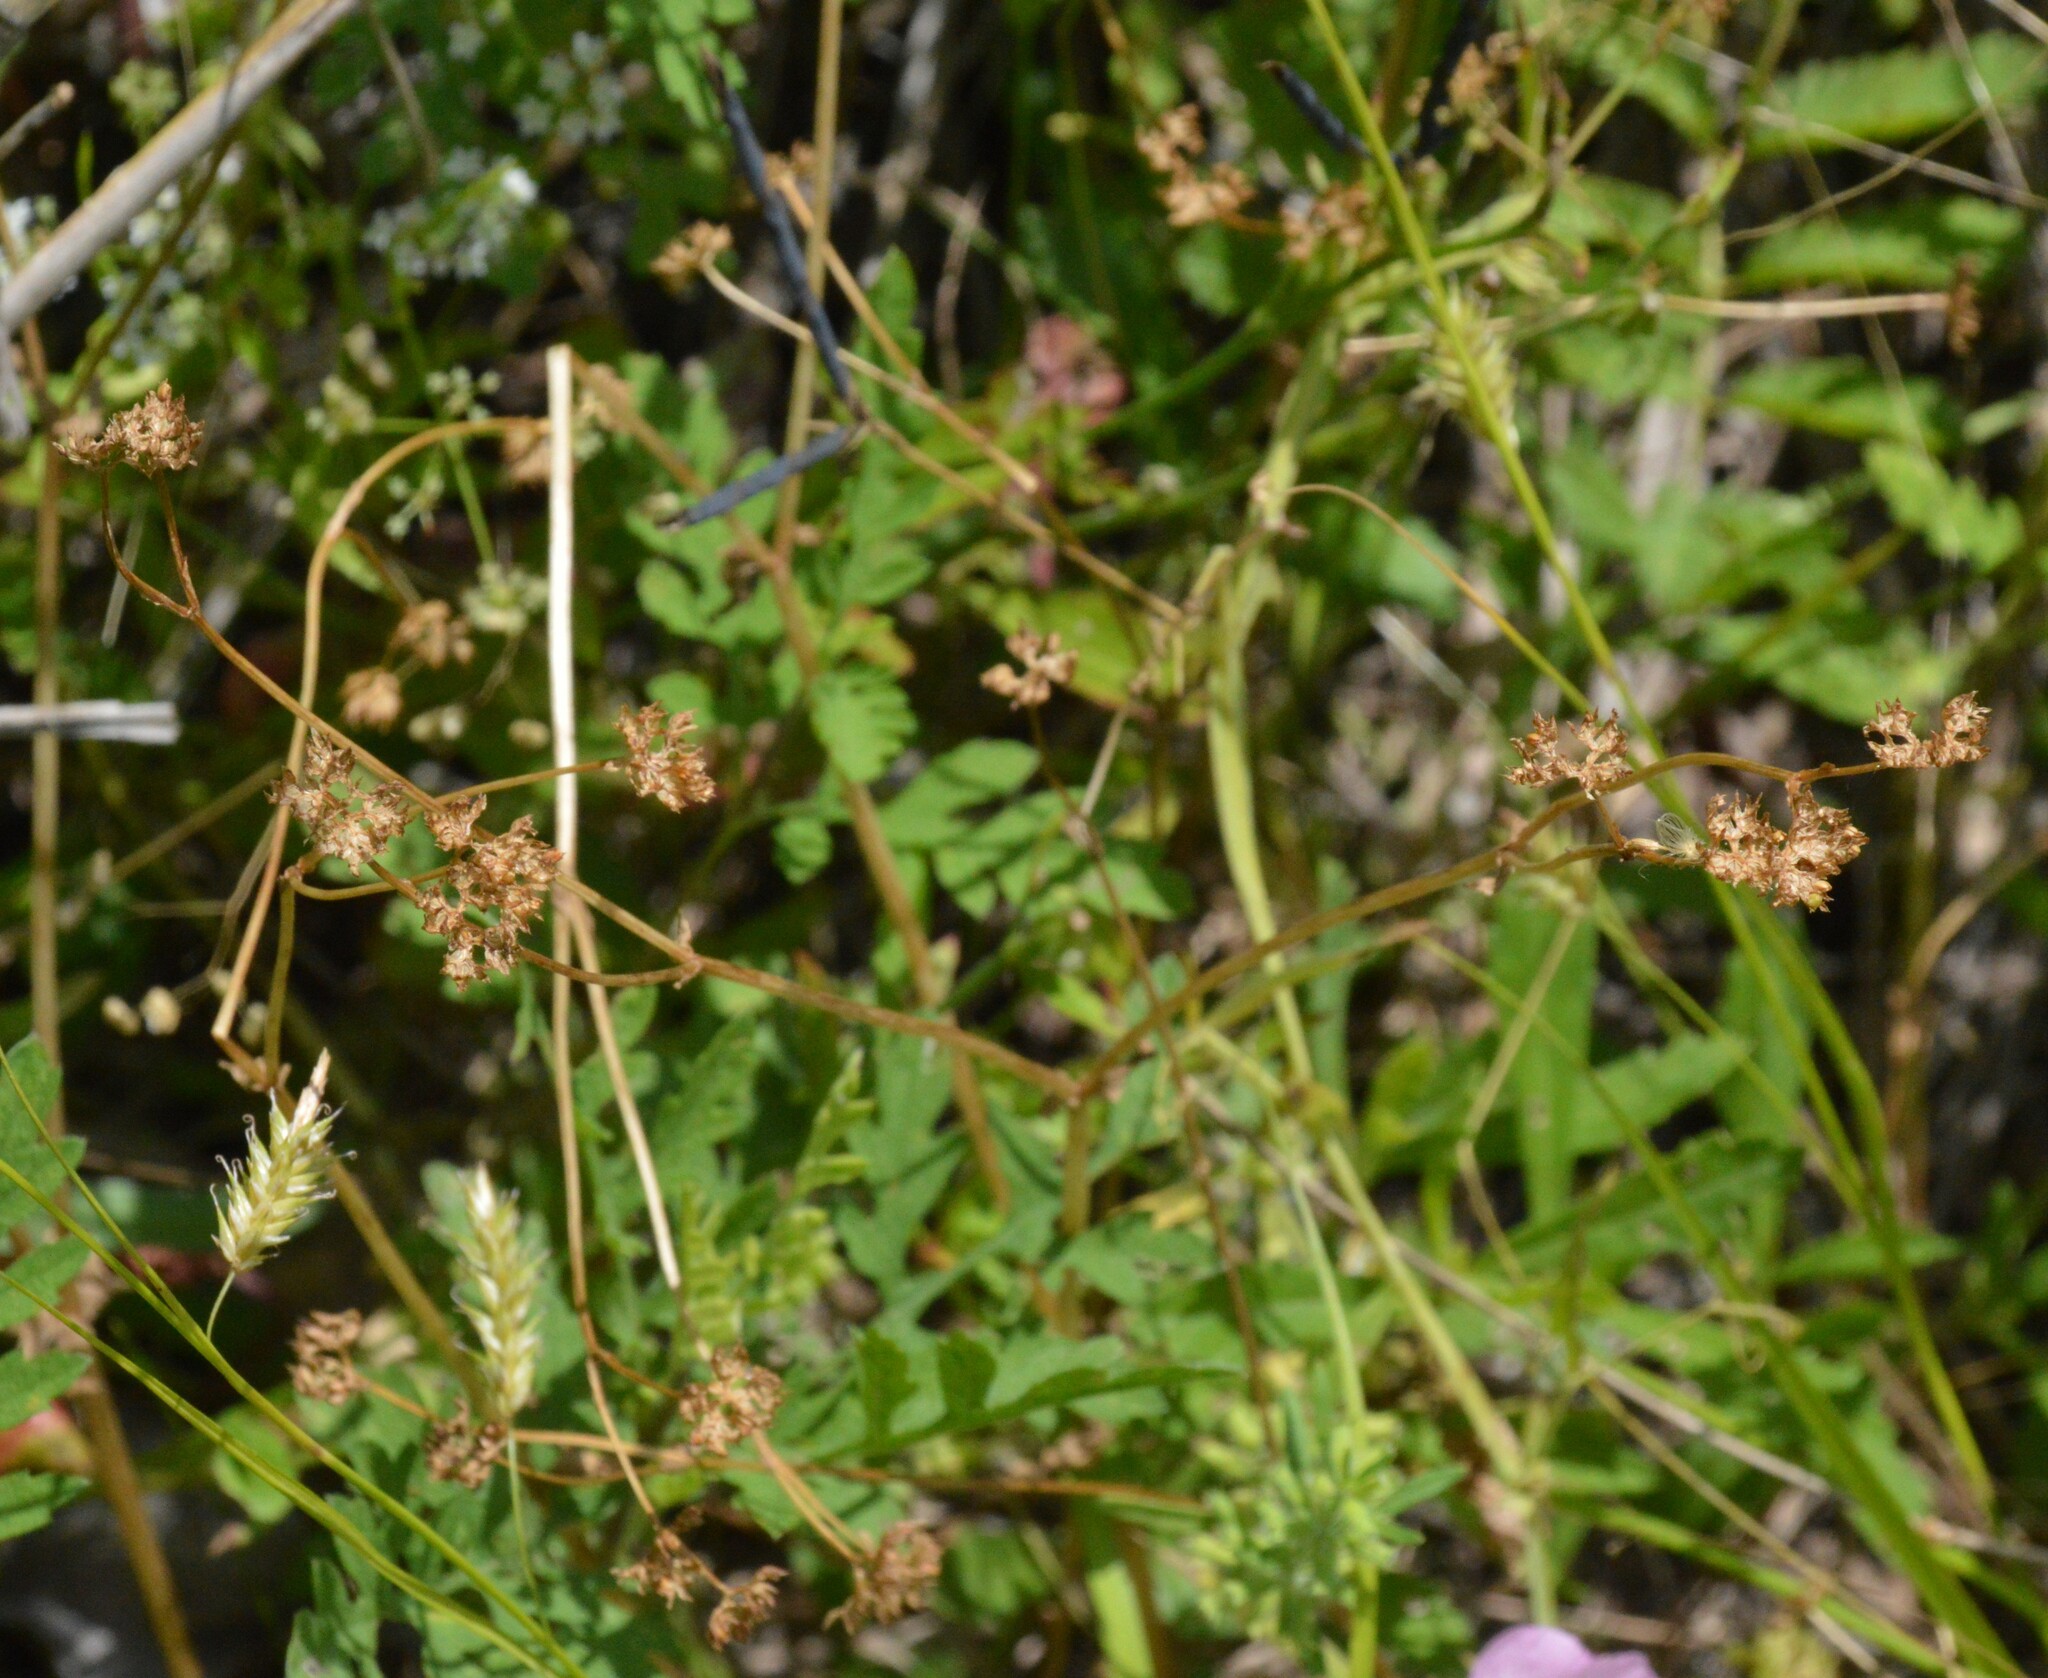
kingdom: Plantae
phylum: Tracheophyta
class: Magnoliopsida
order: Dipsacales
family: Caprifoliaceae
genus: Valerianella
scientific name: Valerianella radiata
